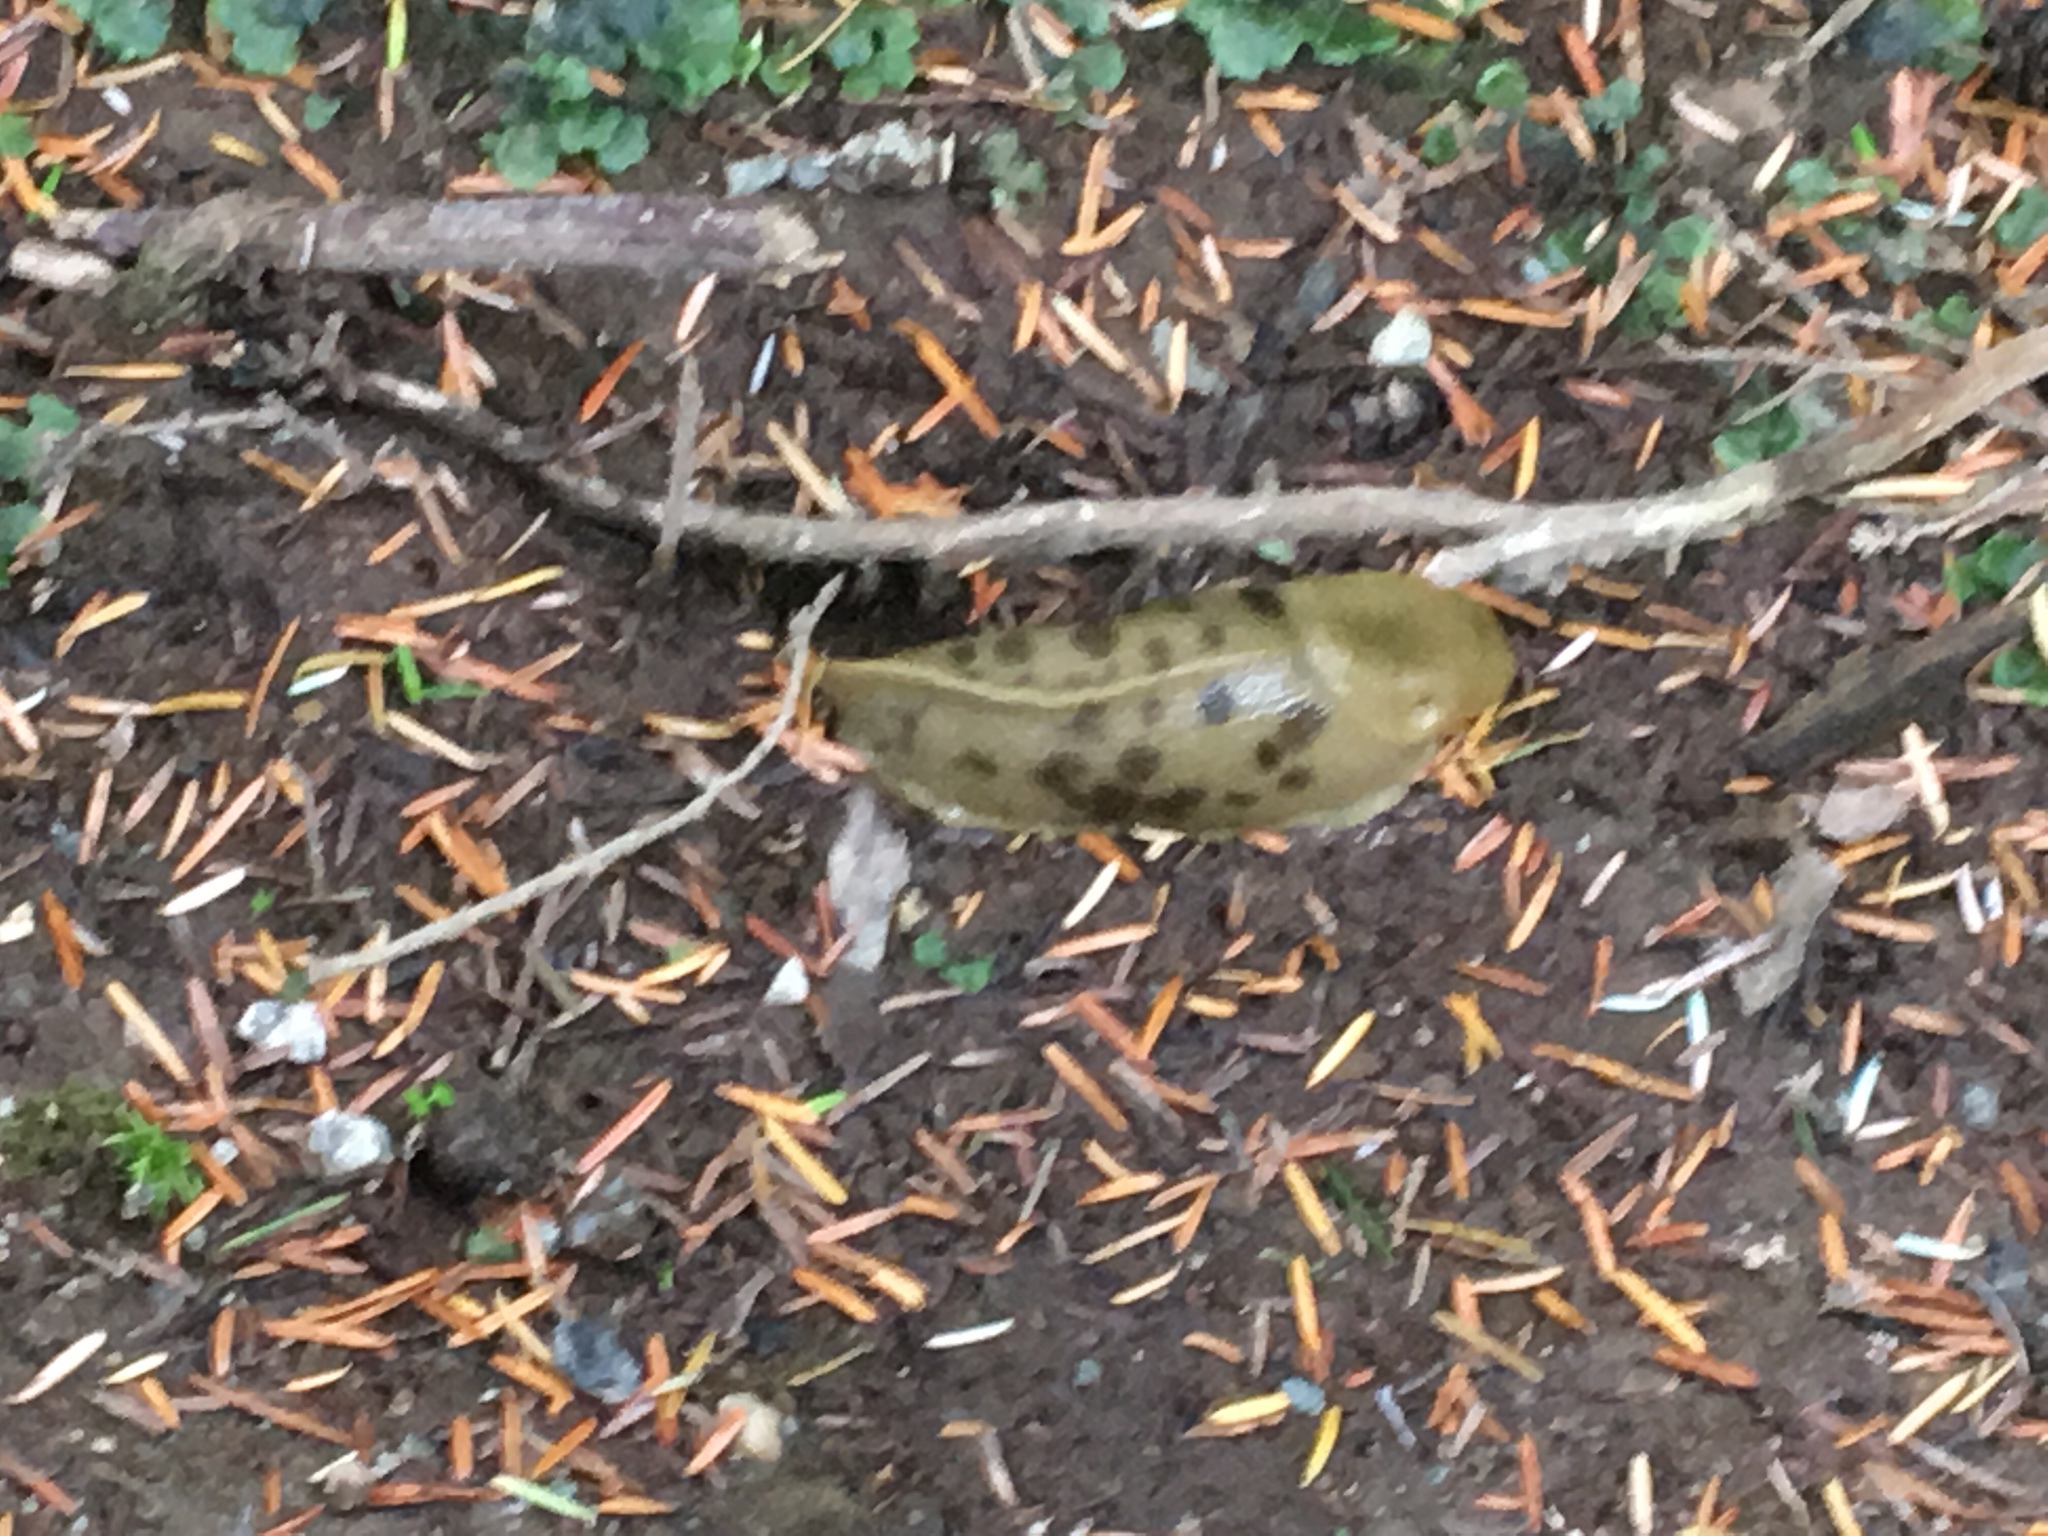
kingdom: Animalia
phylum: Mollusca
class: Gastropoda
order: Stylommatophora
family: Ariolimacidae
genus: Ariolimax
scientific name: Ariolimax columbianus
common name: Pacific banana slug
